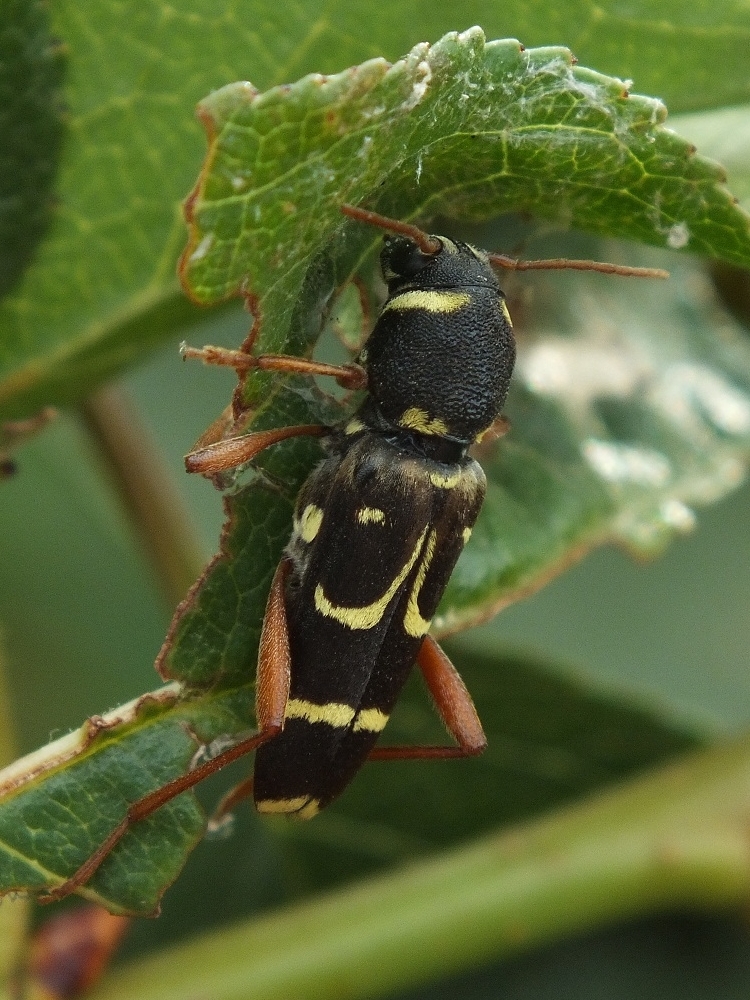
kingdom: Animalia
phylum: Arthropoda
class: Insecta
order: Coleoptera
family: Cerambycidae
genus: Xylotrechus
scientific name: Xylotrechus arvicola
